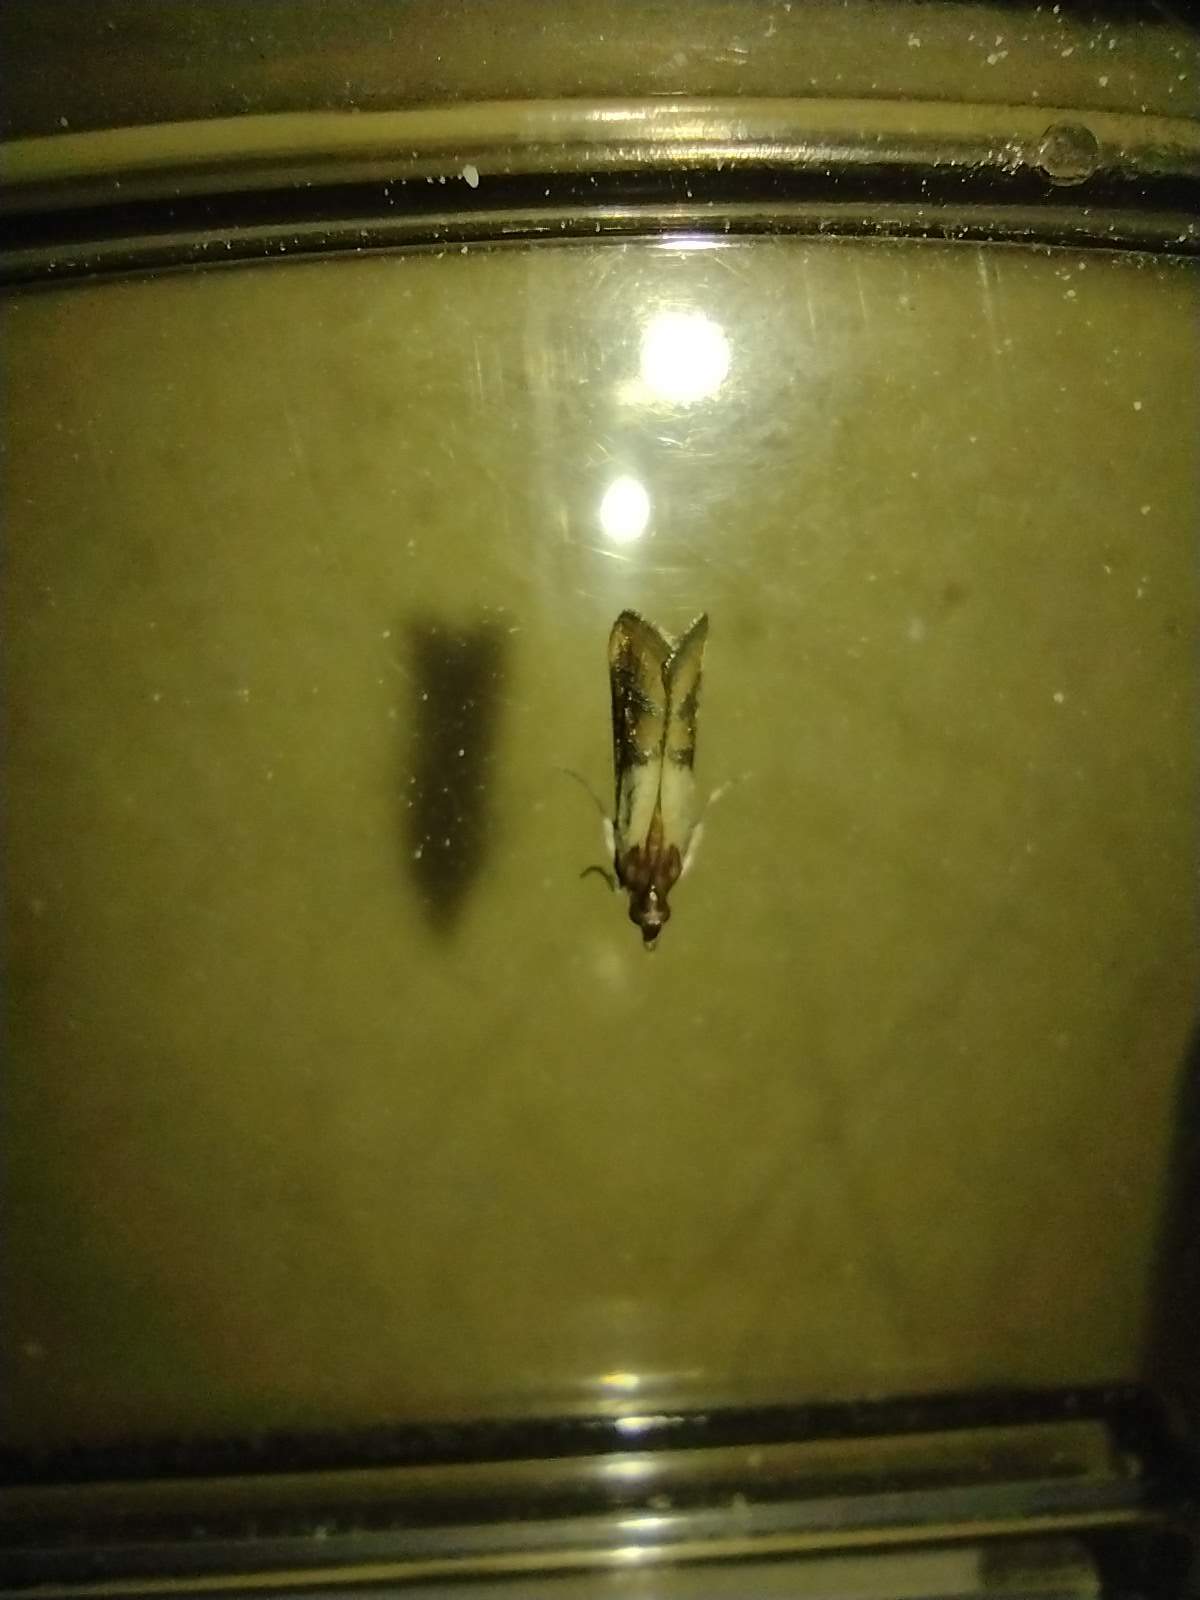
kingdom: Animalia
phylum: Arthropoda
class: Insecta
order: Lepidoptera
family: Pyralidae
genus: Plodia
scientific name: Plodia interpunctella
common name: Indian meal moth
